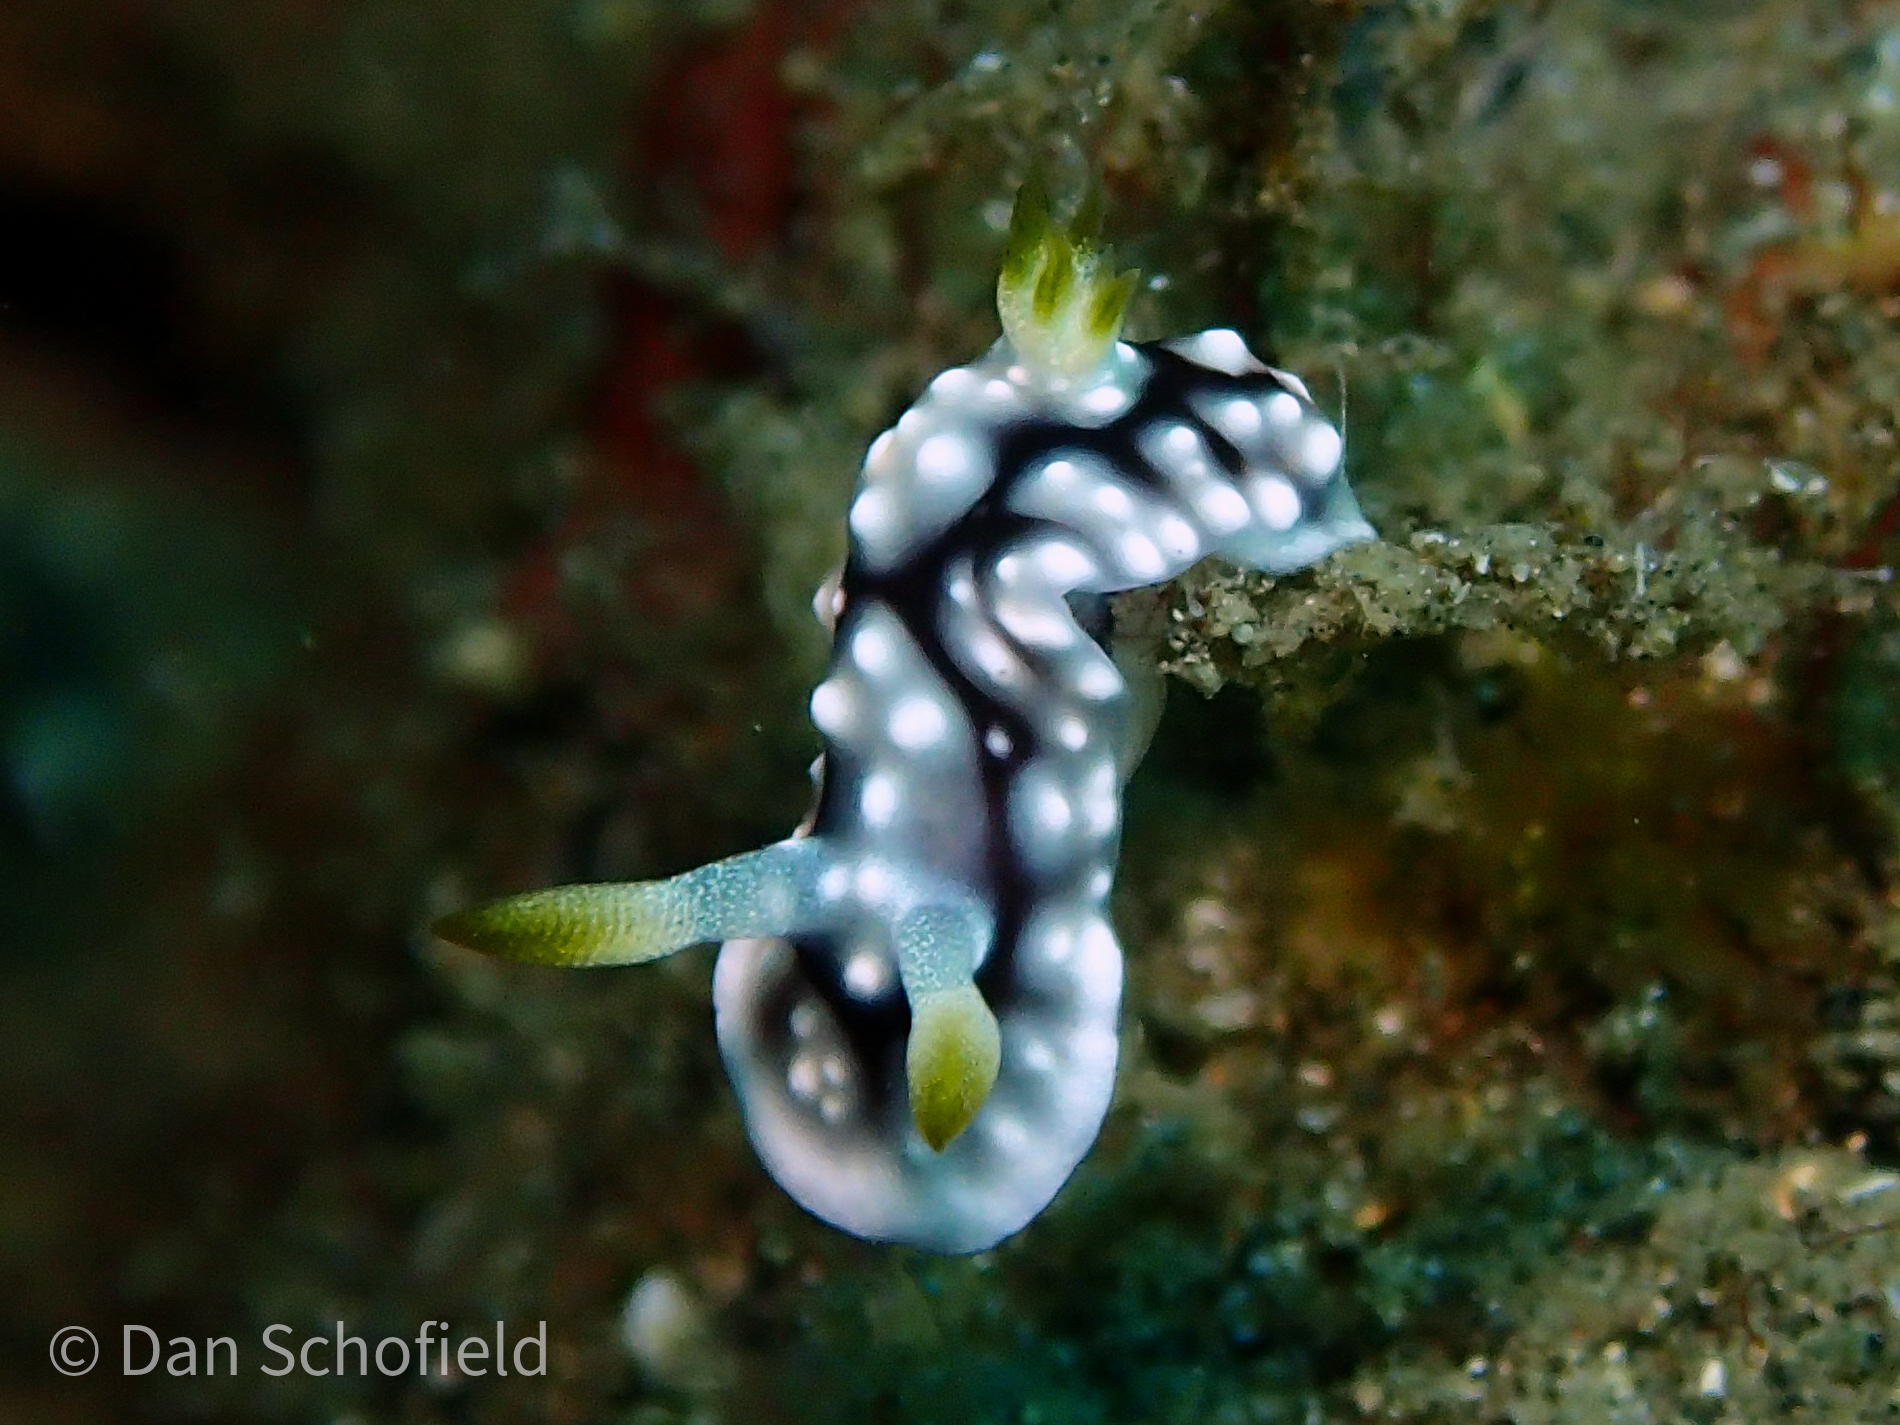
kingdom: Animalia
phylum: Mollusca
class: Gastropoda
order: Nudibranchia
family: Chromodorididae
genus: Goniobranchus
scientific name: Goniobranchus geometricus
